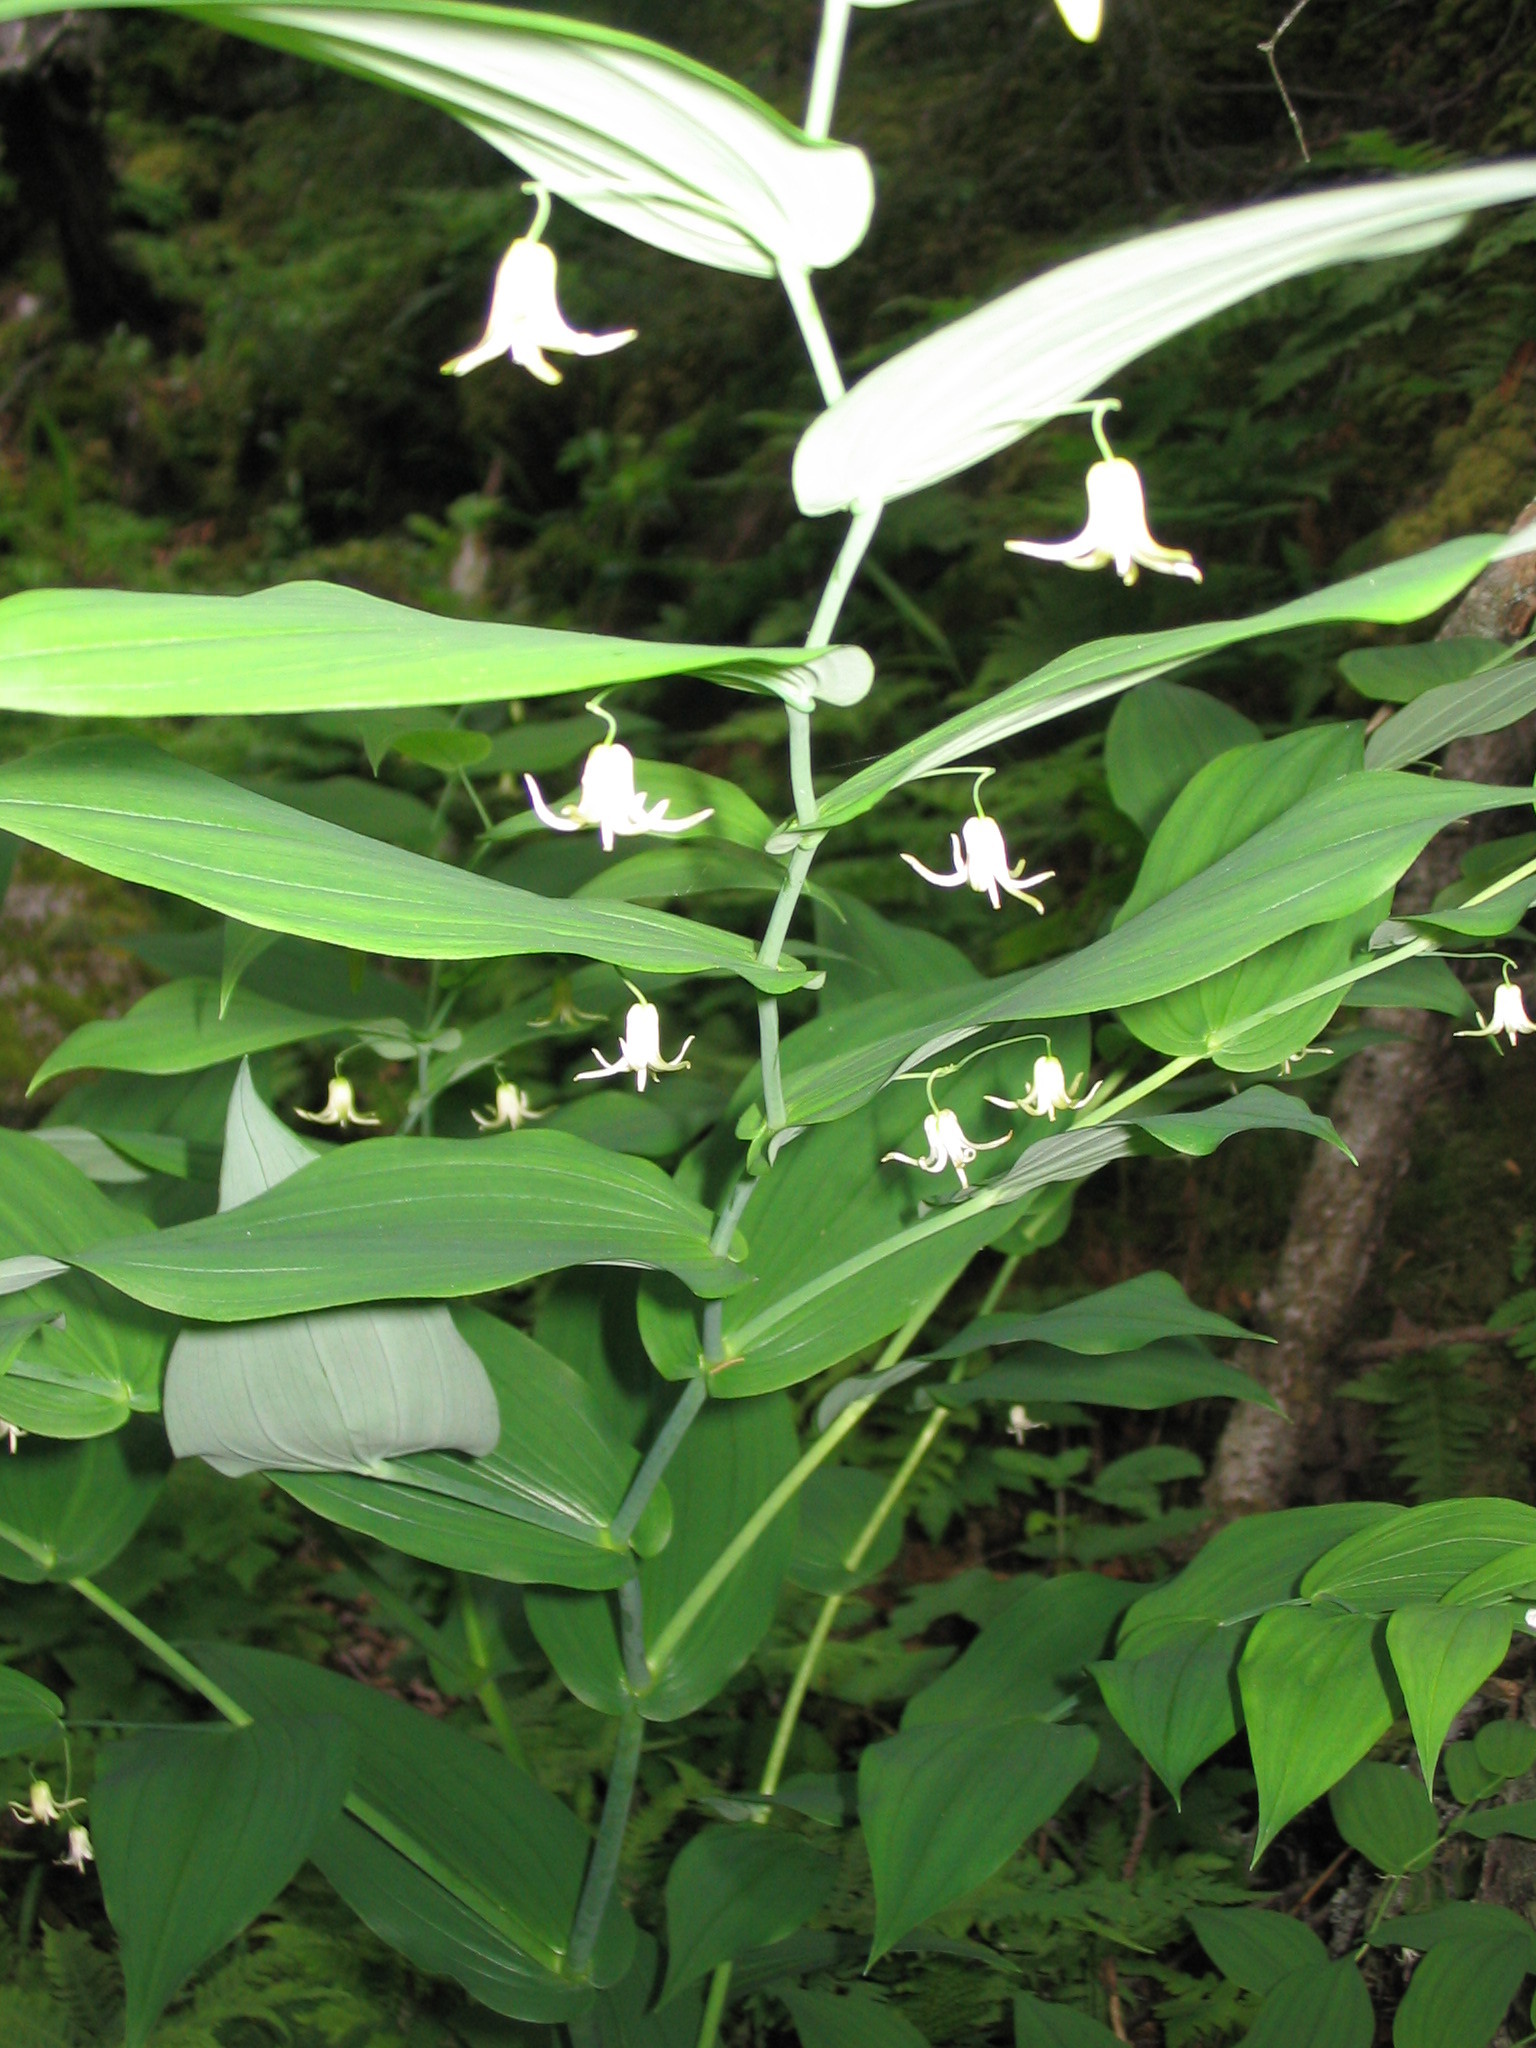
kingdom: Plantae
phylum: Tracheophyta
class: Liliopsida
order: Liliales
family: Liliaceae
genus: Streptopus
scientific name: Streptopus amplexifolius
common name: Clasp twisted stalk
